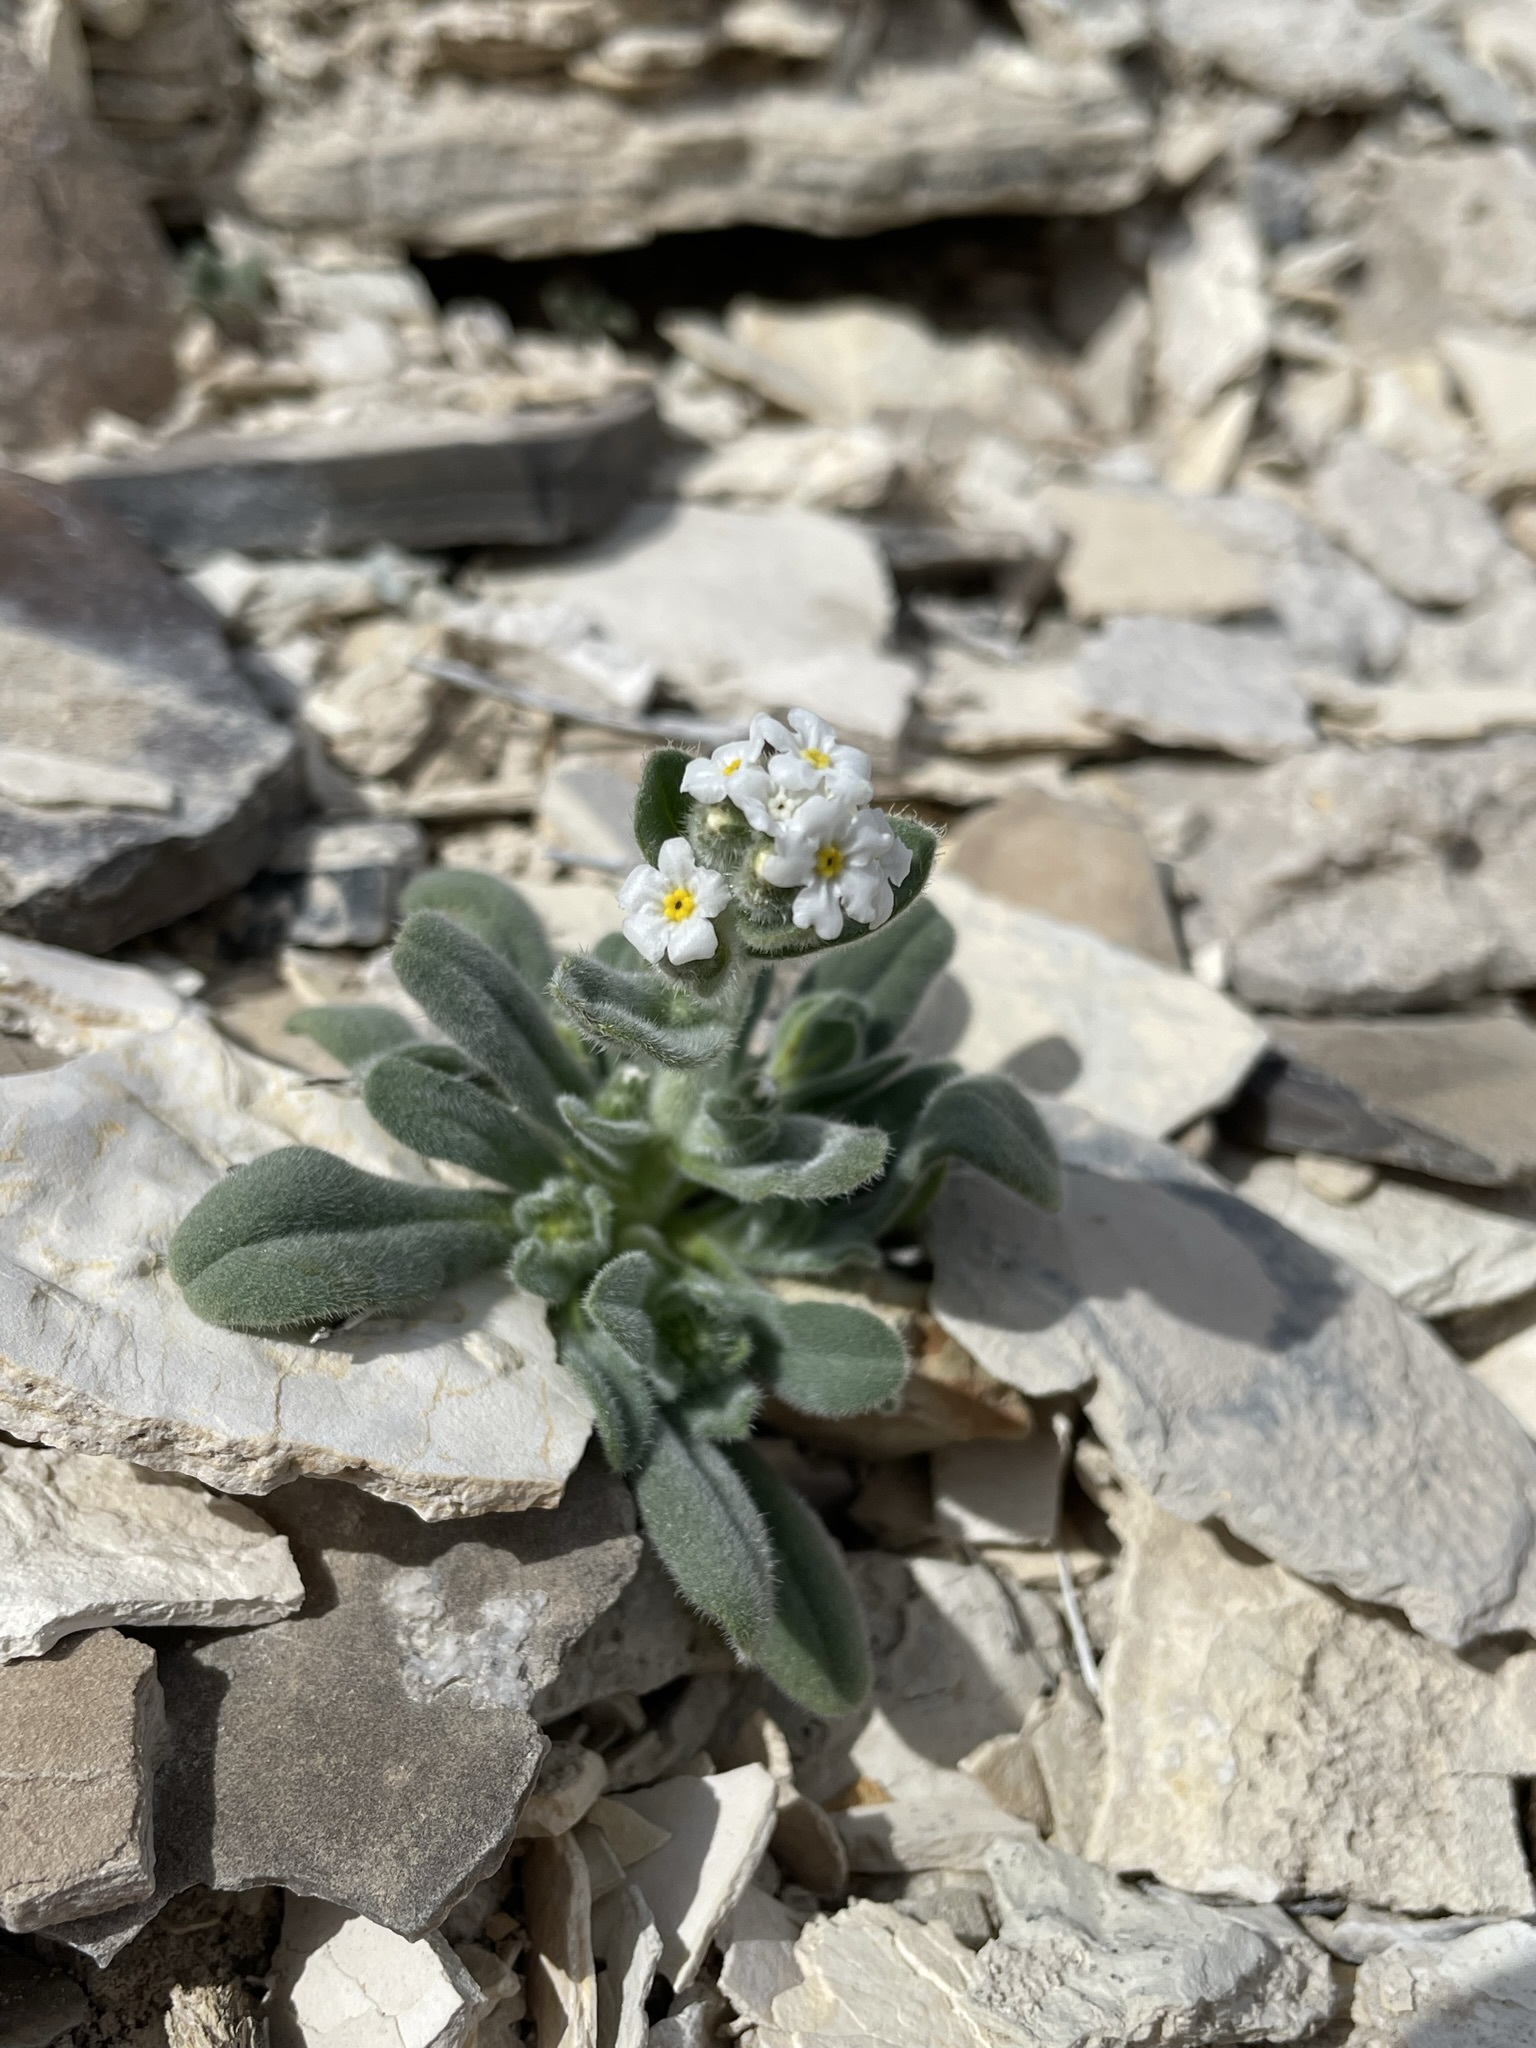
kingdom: Plantae
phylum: Tracheophyta
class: Magnoliopsida
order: Boraginales
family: Boraginaceae
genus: Amsinckiopsis
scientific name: Amsinckiopsis kingii
